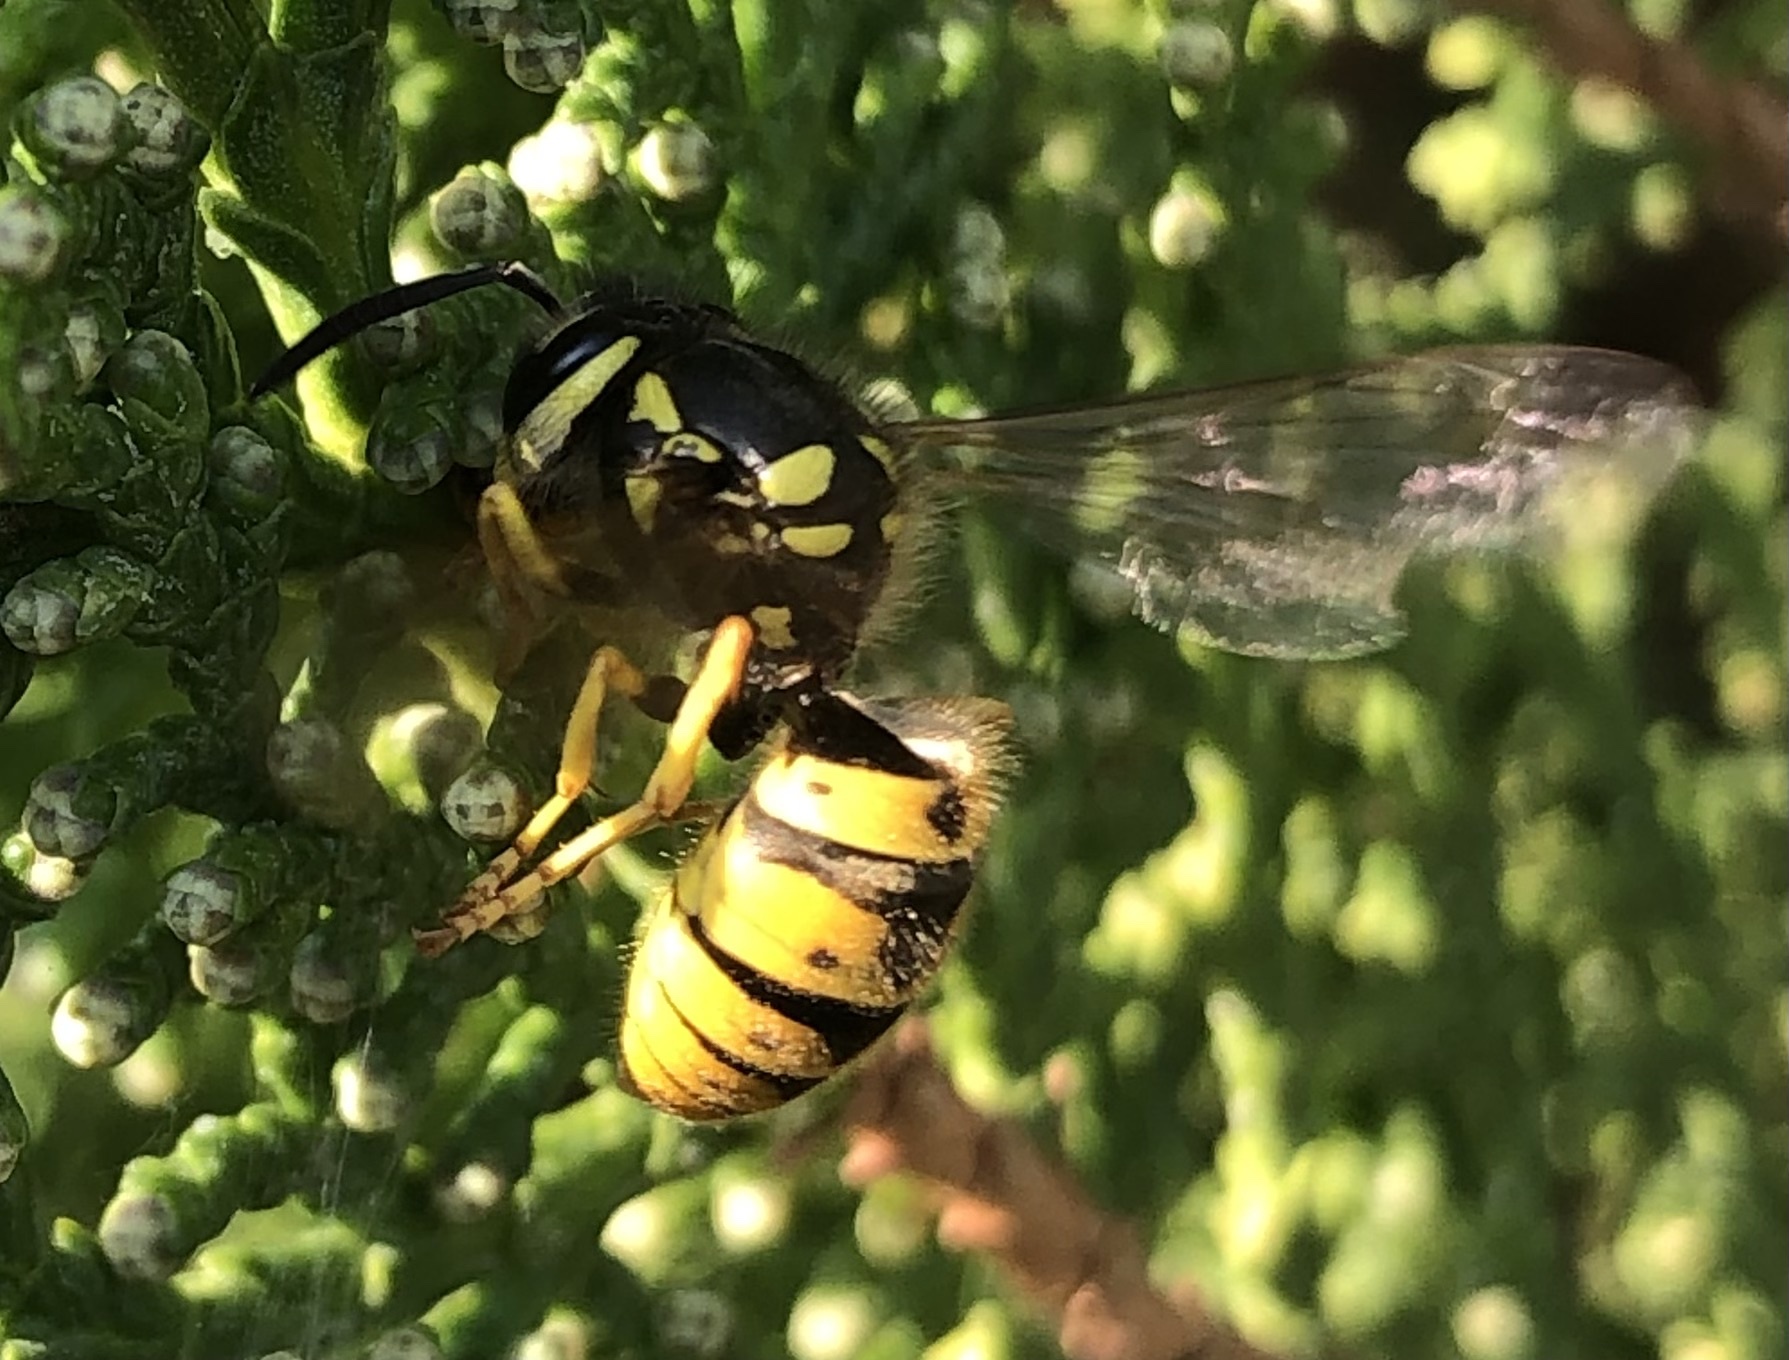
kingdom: Animalia
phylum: Arthropoda
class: Insecta
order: Hymenoptera
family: Vespidae
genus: Vespula
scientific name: Vespula germanica
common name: German wasp
